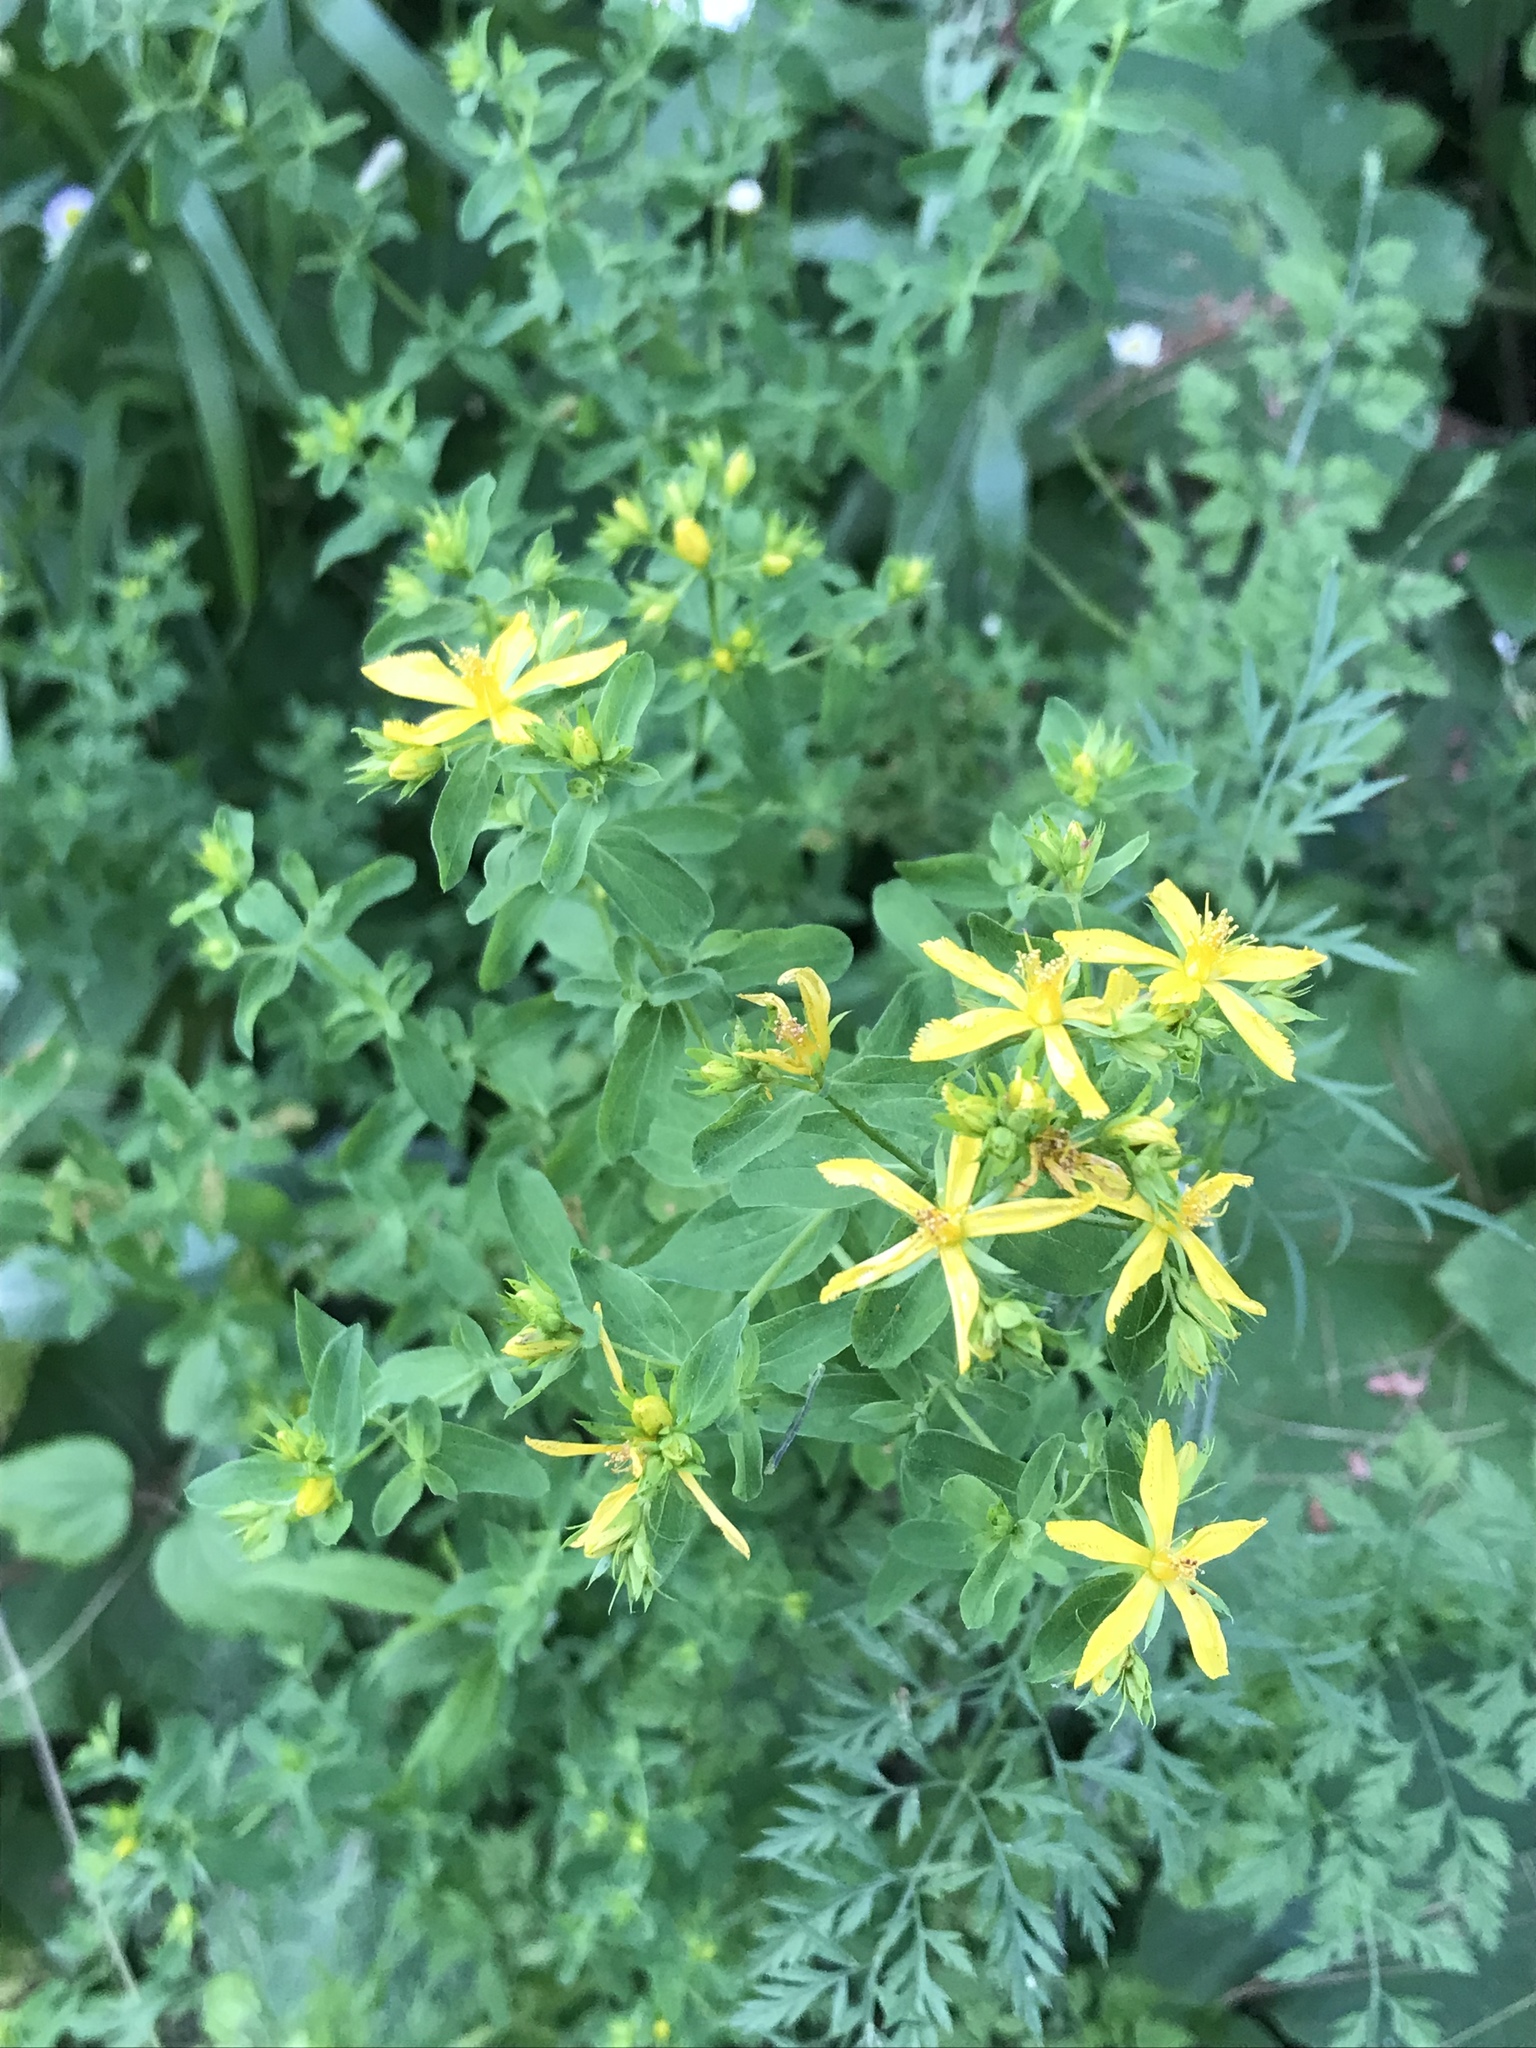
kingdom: Plantae
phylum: Tracheophyta
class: Magnoliopsida
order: Malpighiales
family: Hypericaceae
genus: Hypericum
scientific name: Hypericum perforatum
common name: Common st. johnswort
